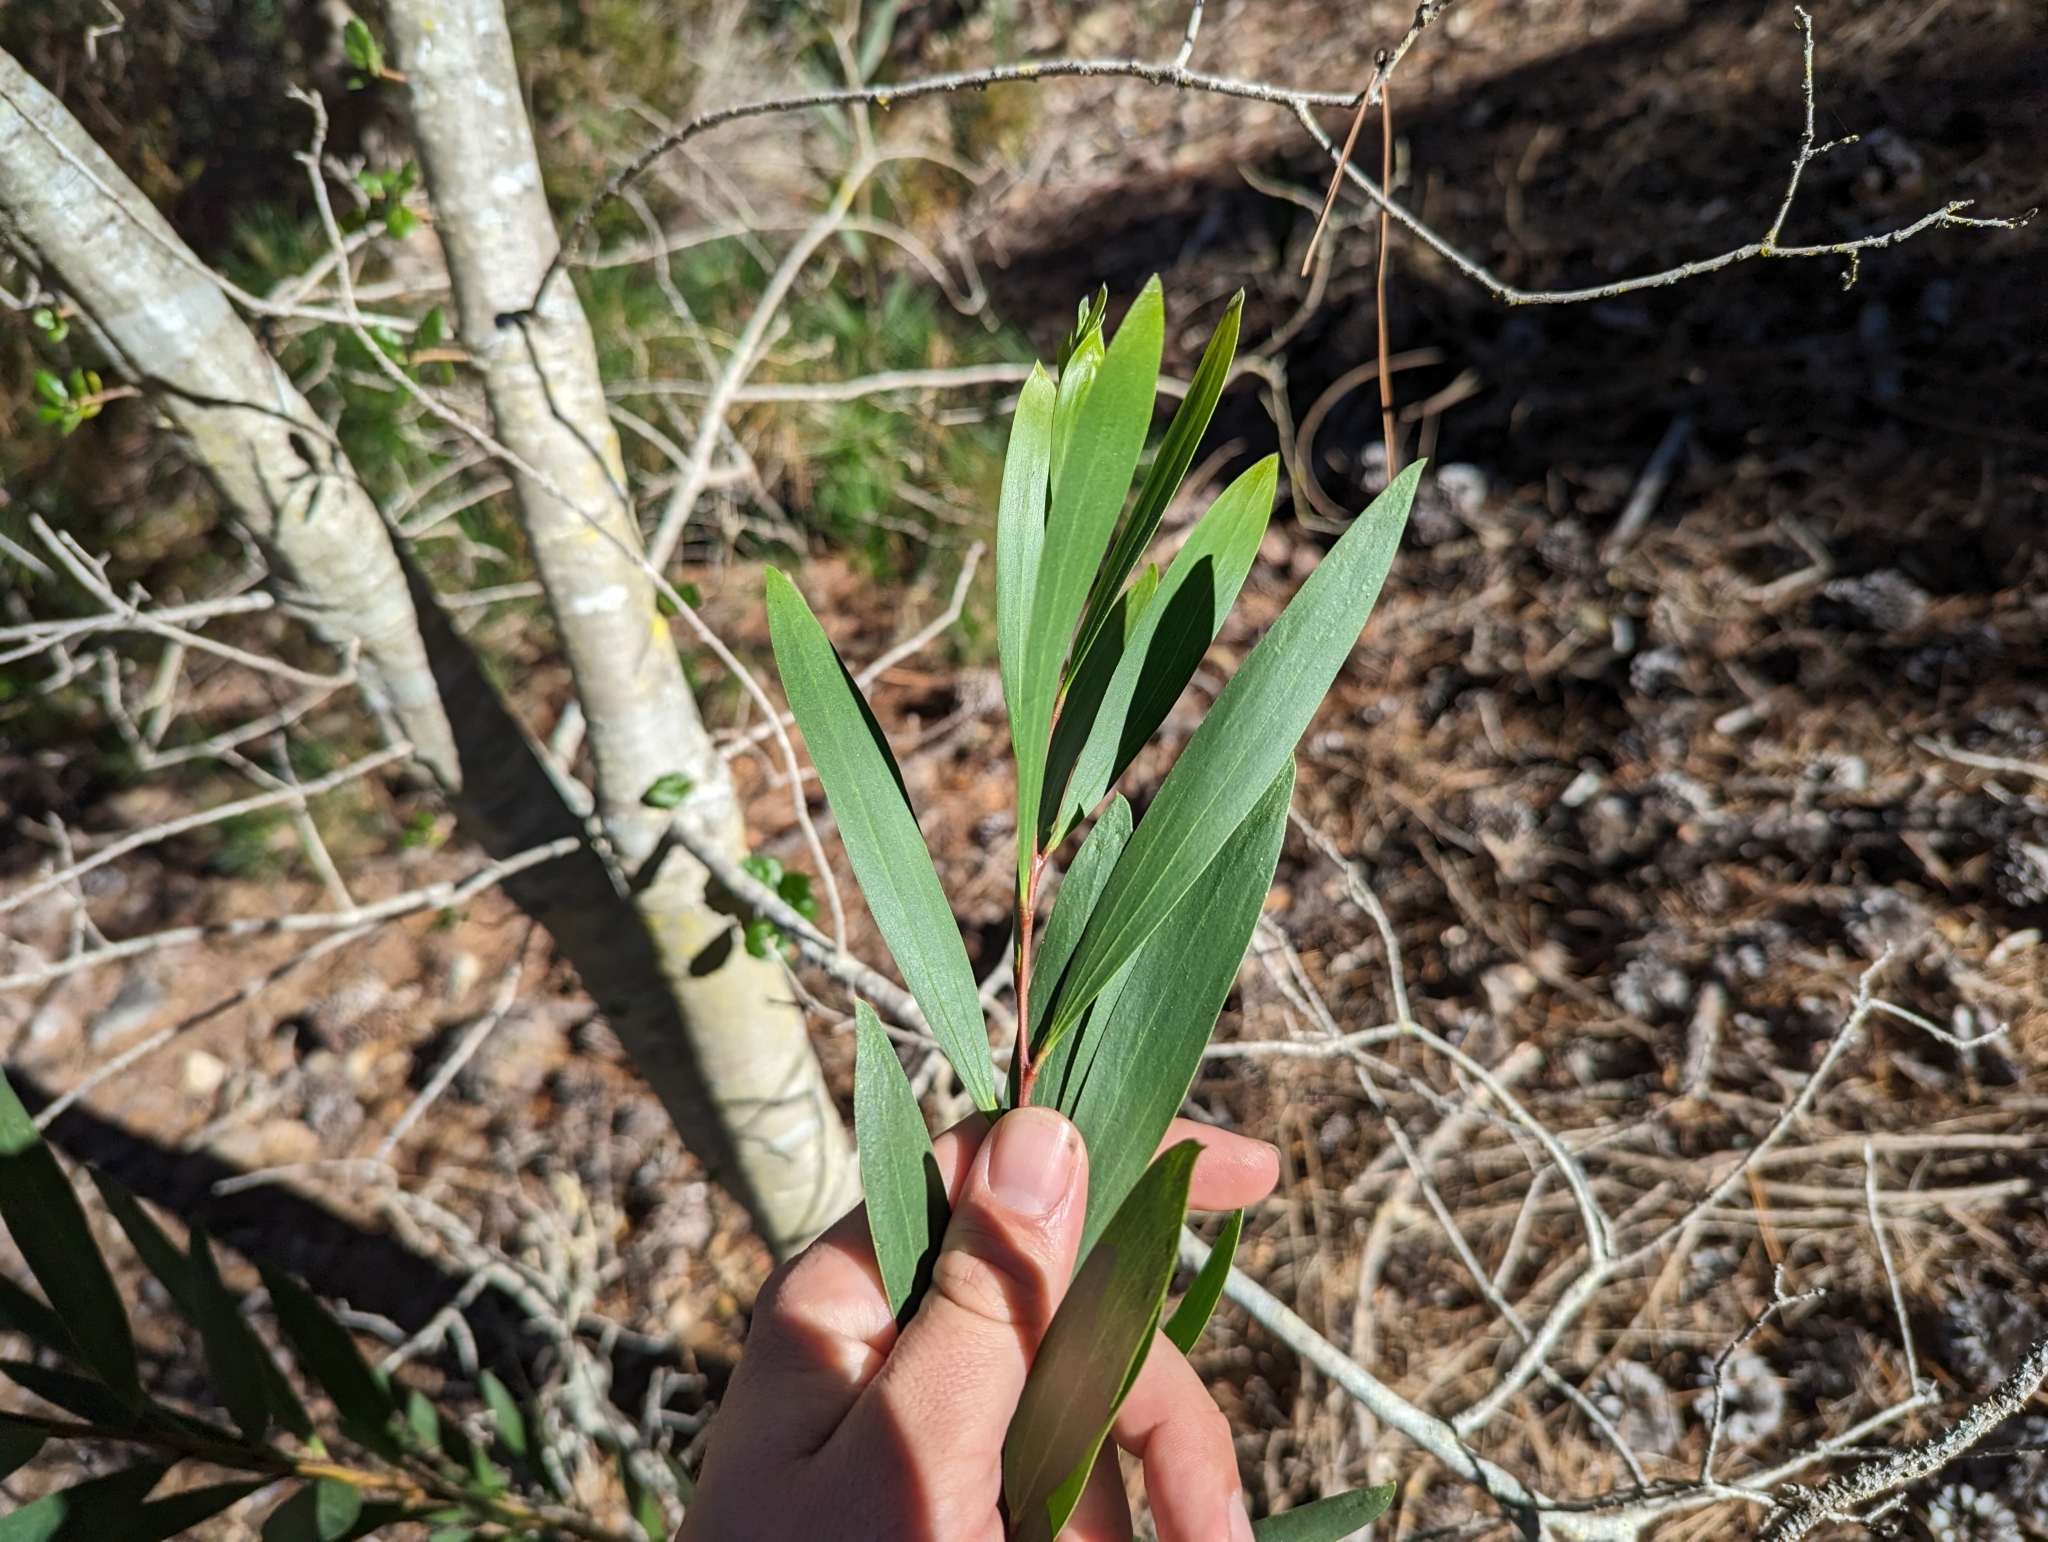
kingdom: Plantae
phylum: Tracheophyta
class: Magnoliopsida
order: Fabales
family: Fabaceae
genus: Acacia
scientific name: Acacia longifolia
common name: Sydney golden wattle
